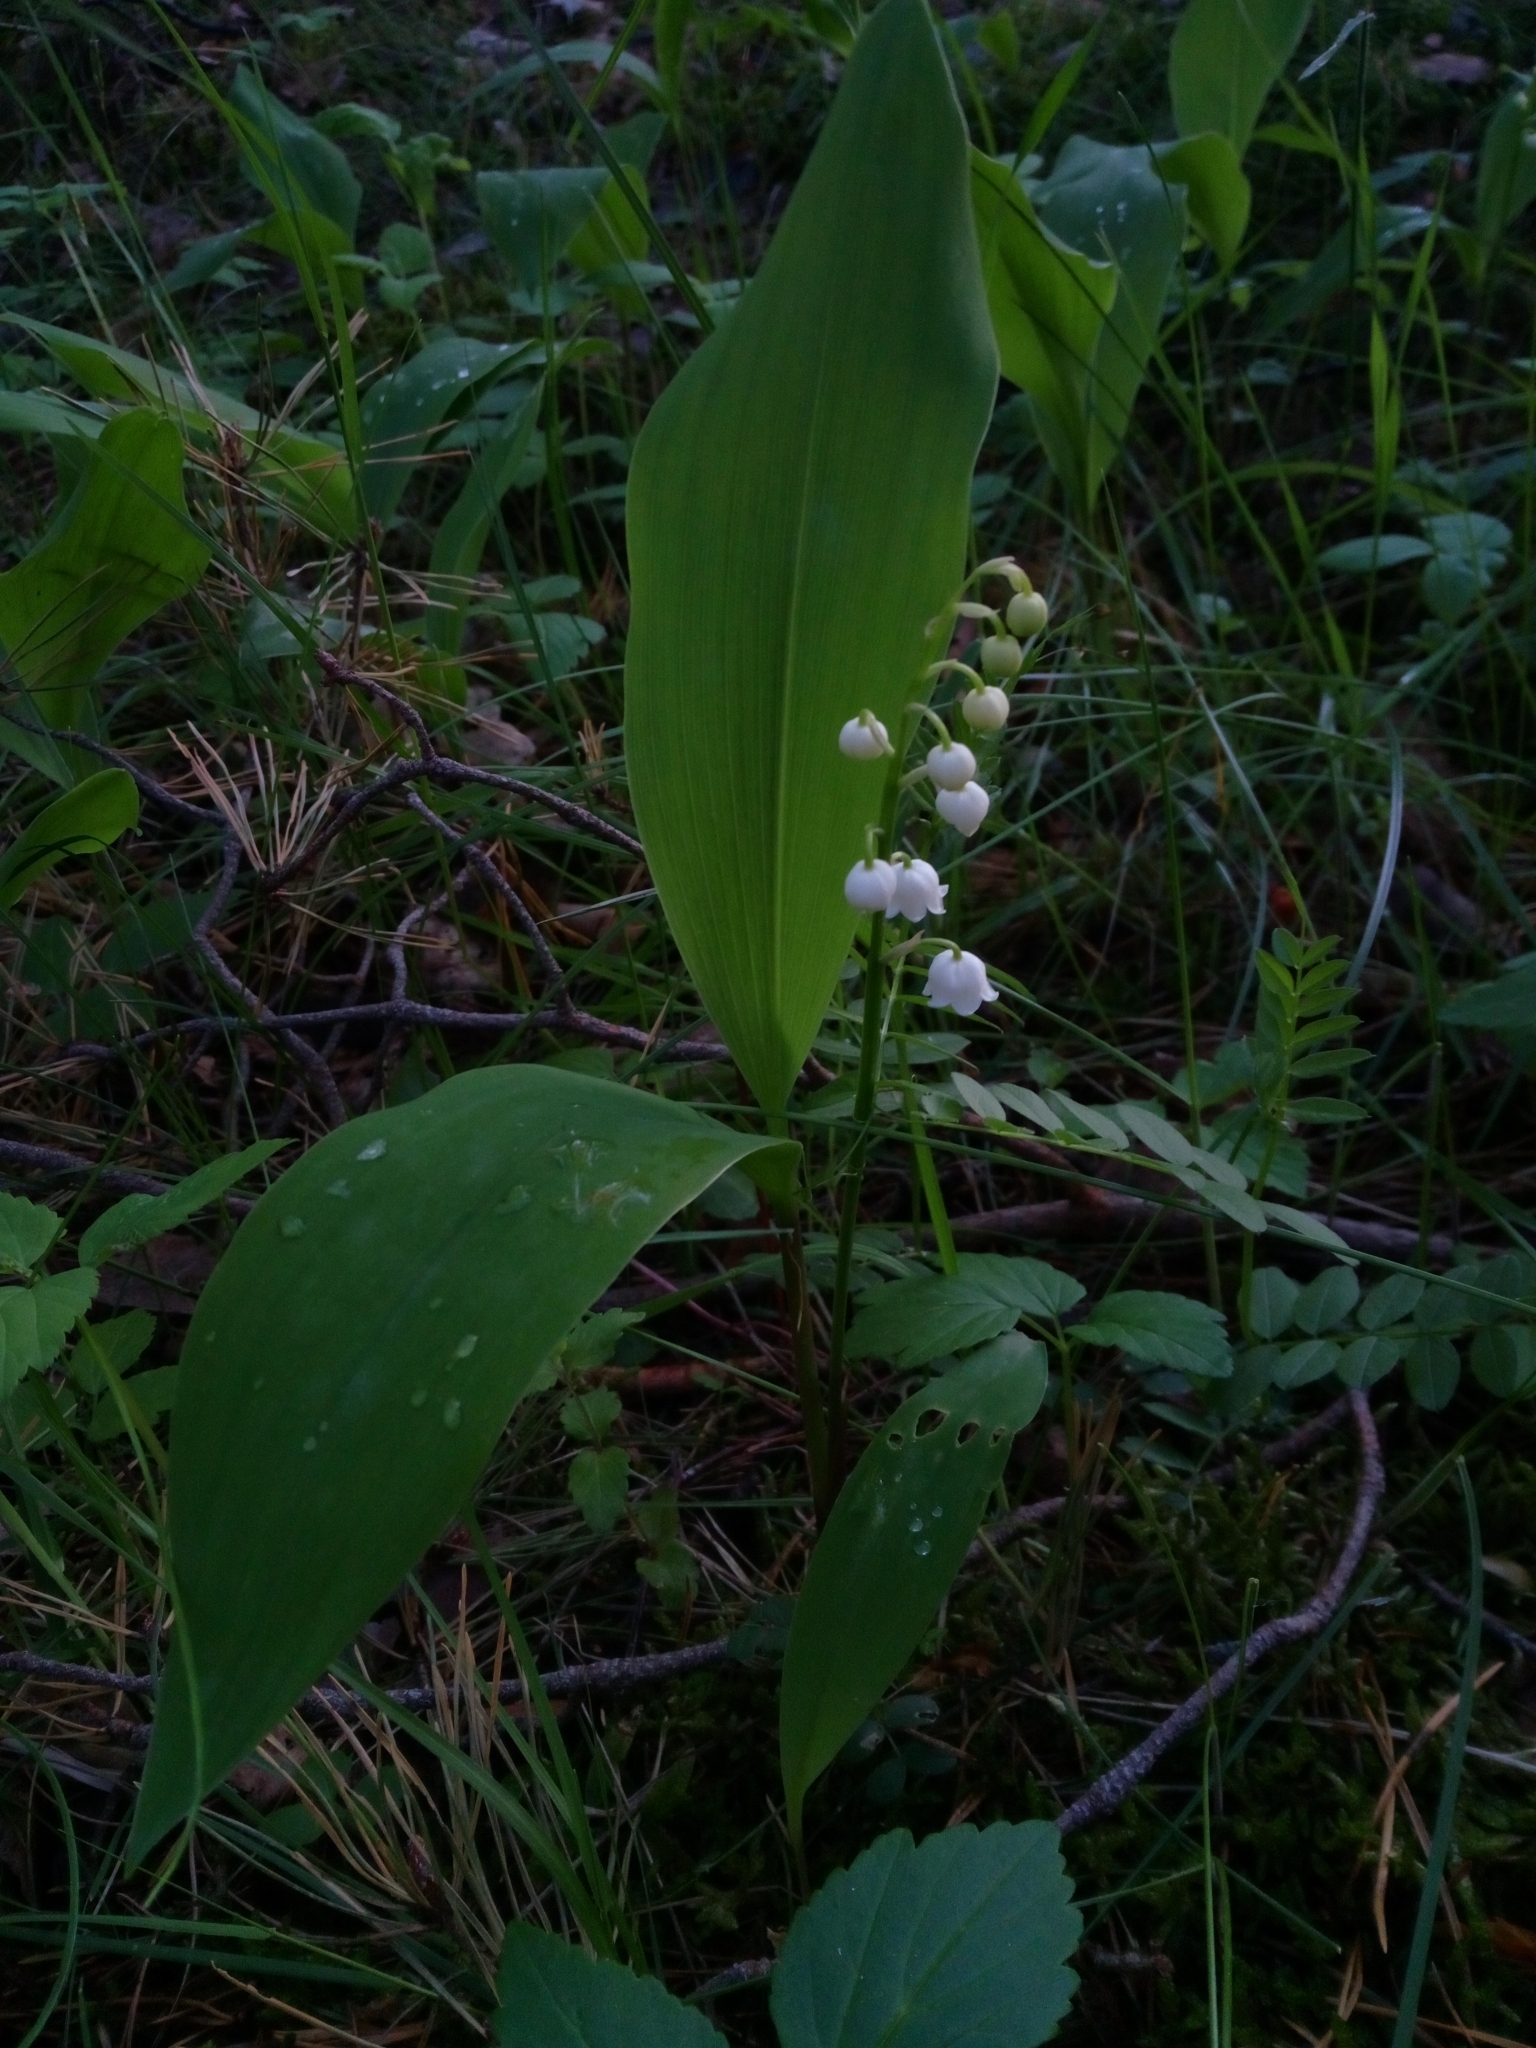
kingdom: Plantae
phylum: Tracheophyta
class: Liliopsida
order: Asparagales
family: Asparagaceae
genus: Convallaria
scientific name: Convallaria majalis
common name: Lily-of-the-valley
